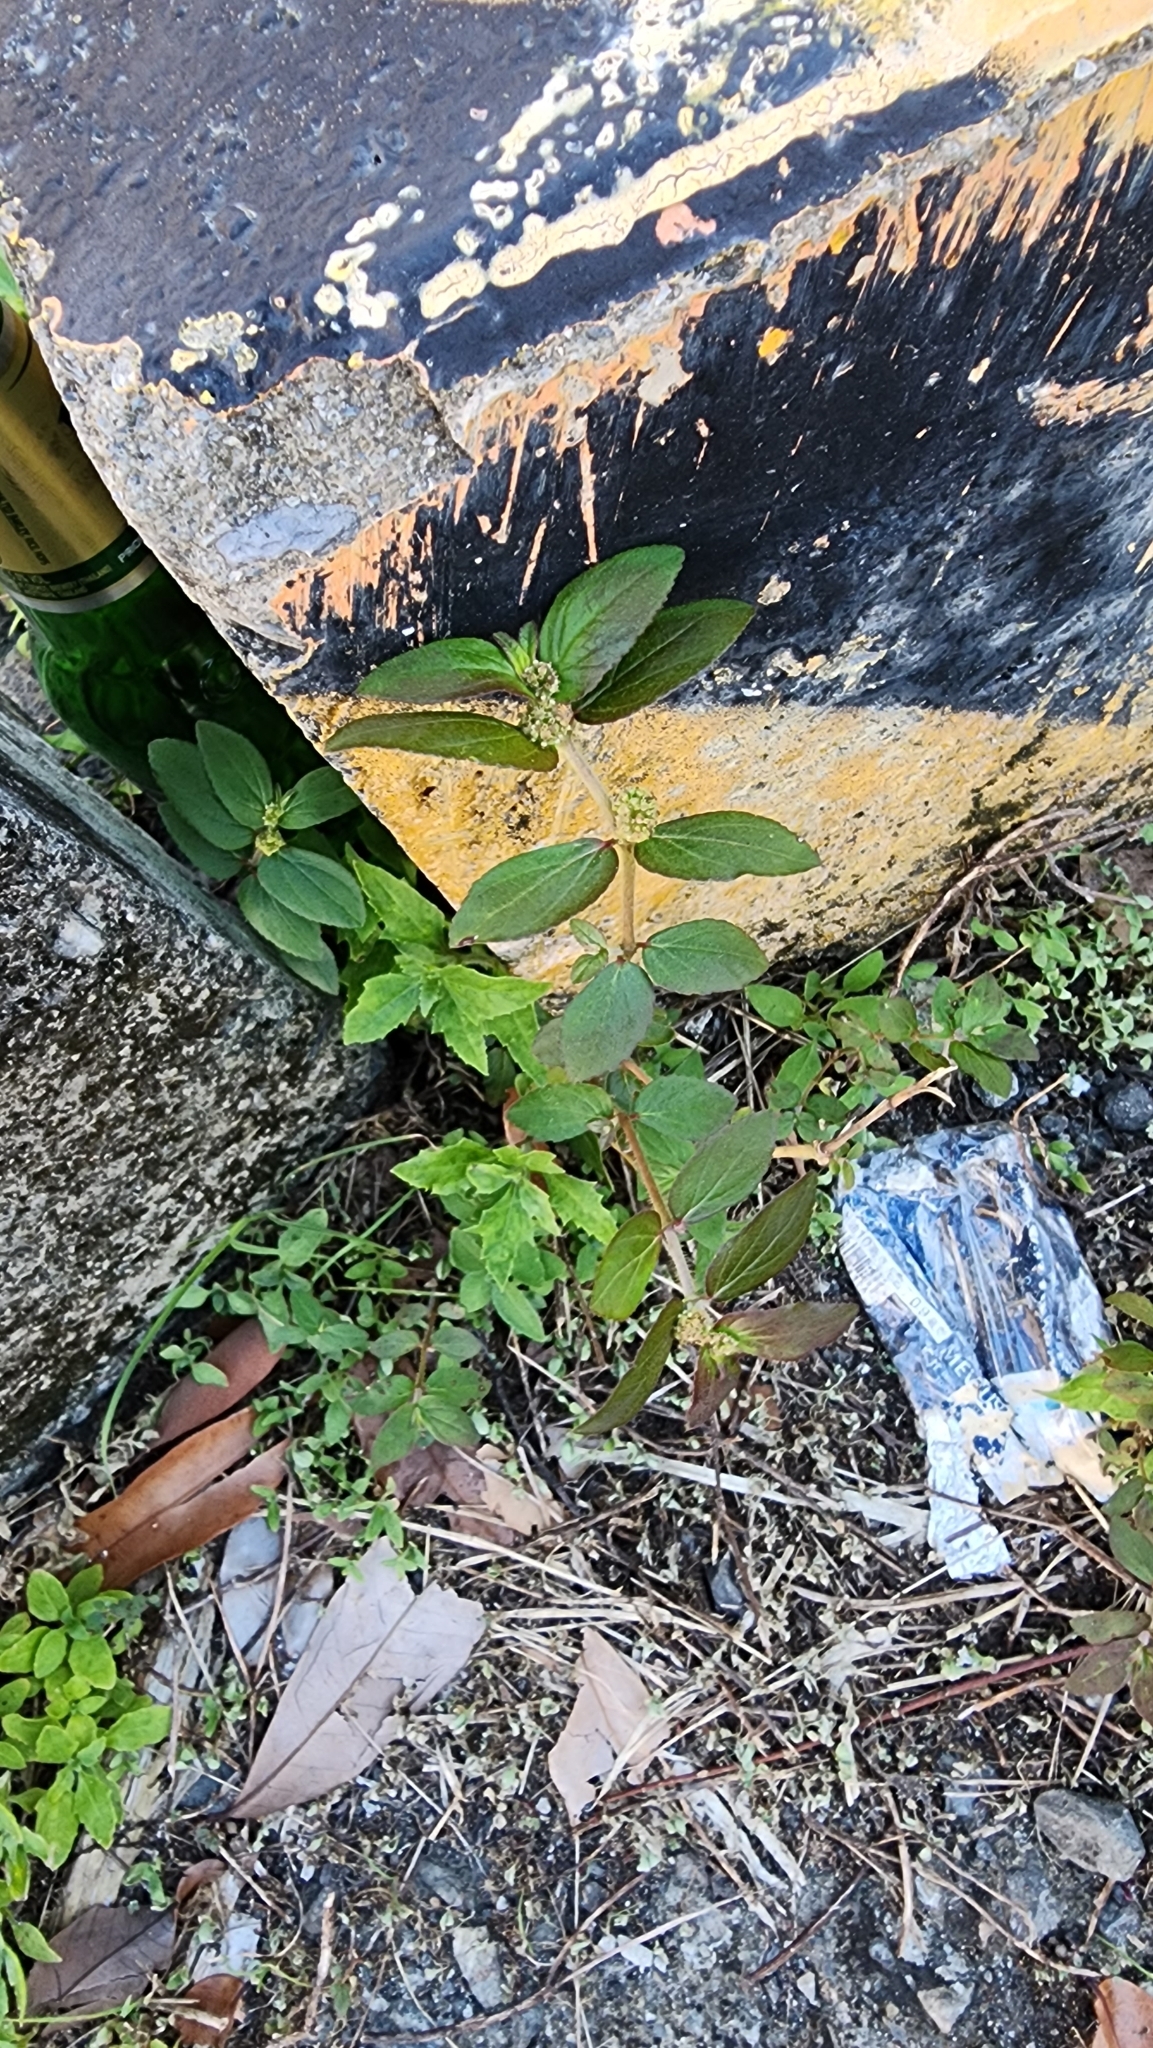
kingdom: Plantae
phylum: Tracheophyta
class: Magnoliopsida
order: Malpighiales
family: Euphorbiaceae
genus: Euphorbia
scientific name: Euphorbia hirta
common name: Pillpod sandmat
